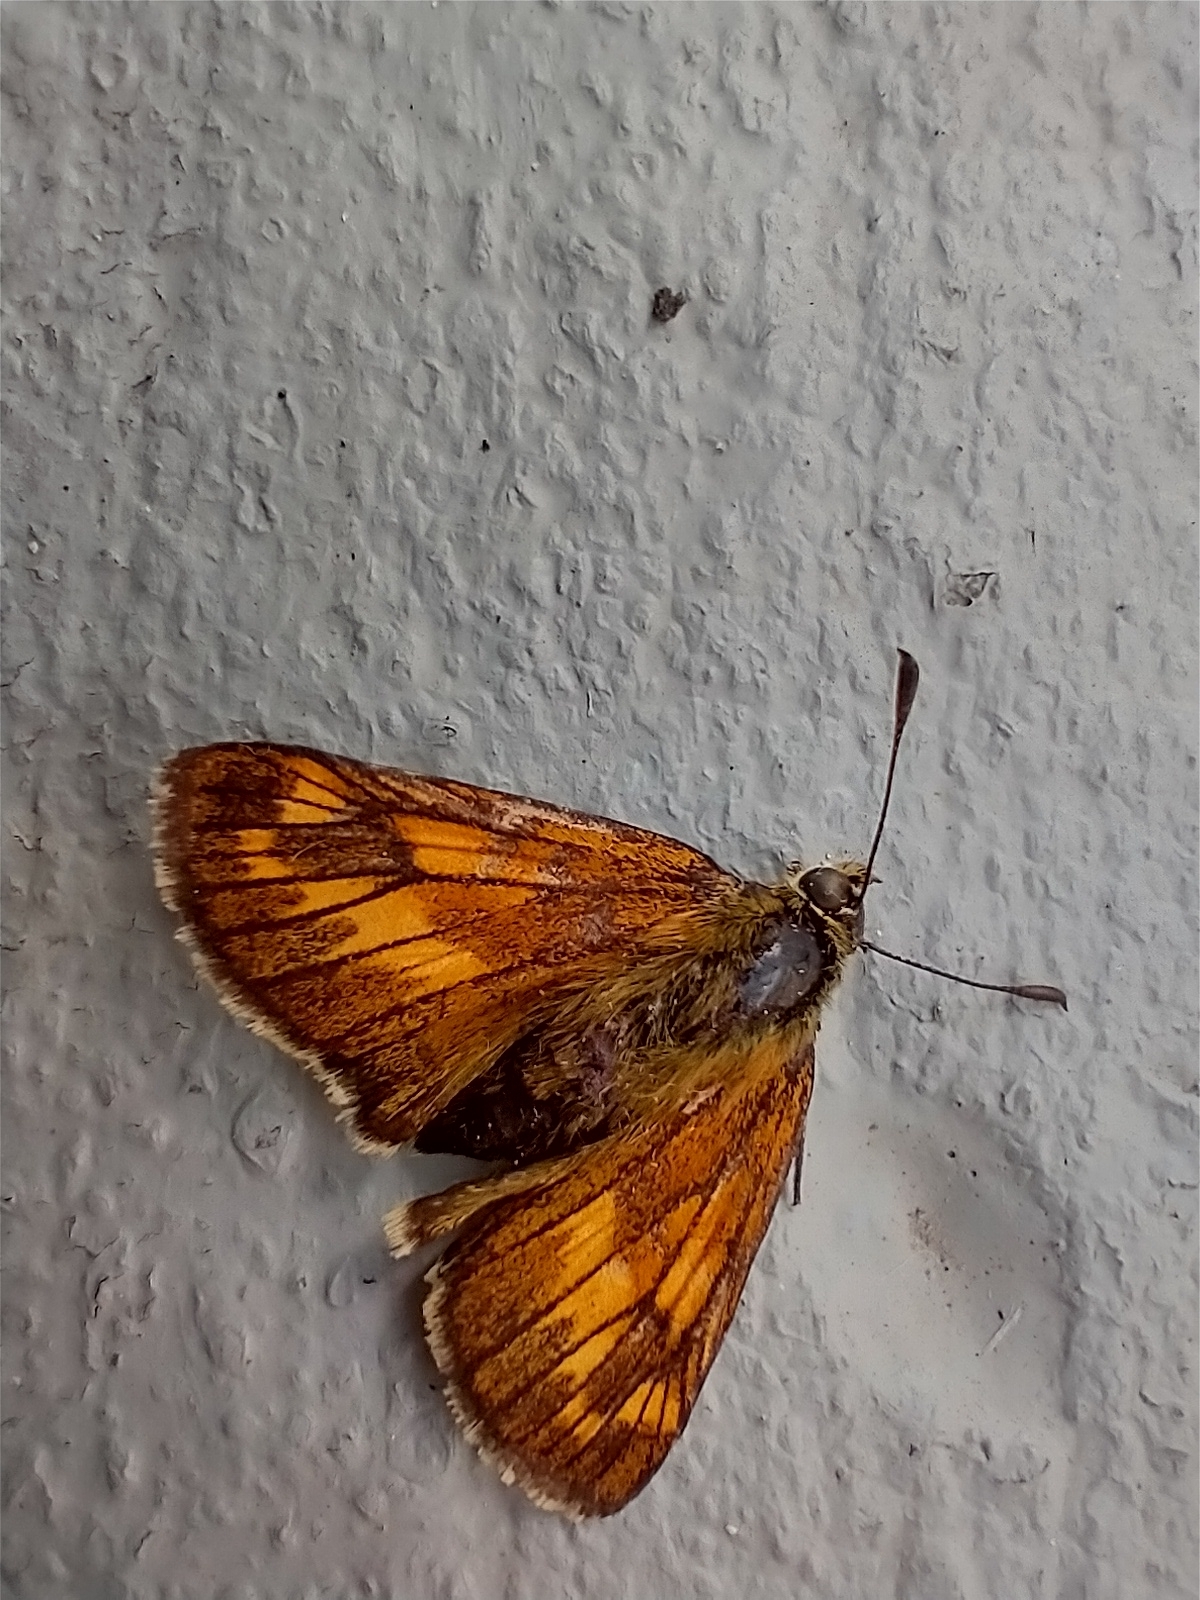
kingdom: Animalia
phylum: Arthropoda
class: Insecta
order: Lepidoptera
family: Hesperiidae
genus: Ochlodes
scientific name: Ochlodes venata
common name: Large skipper
